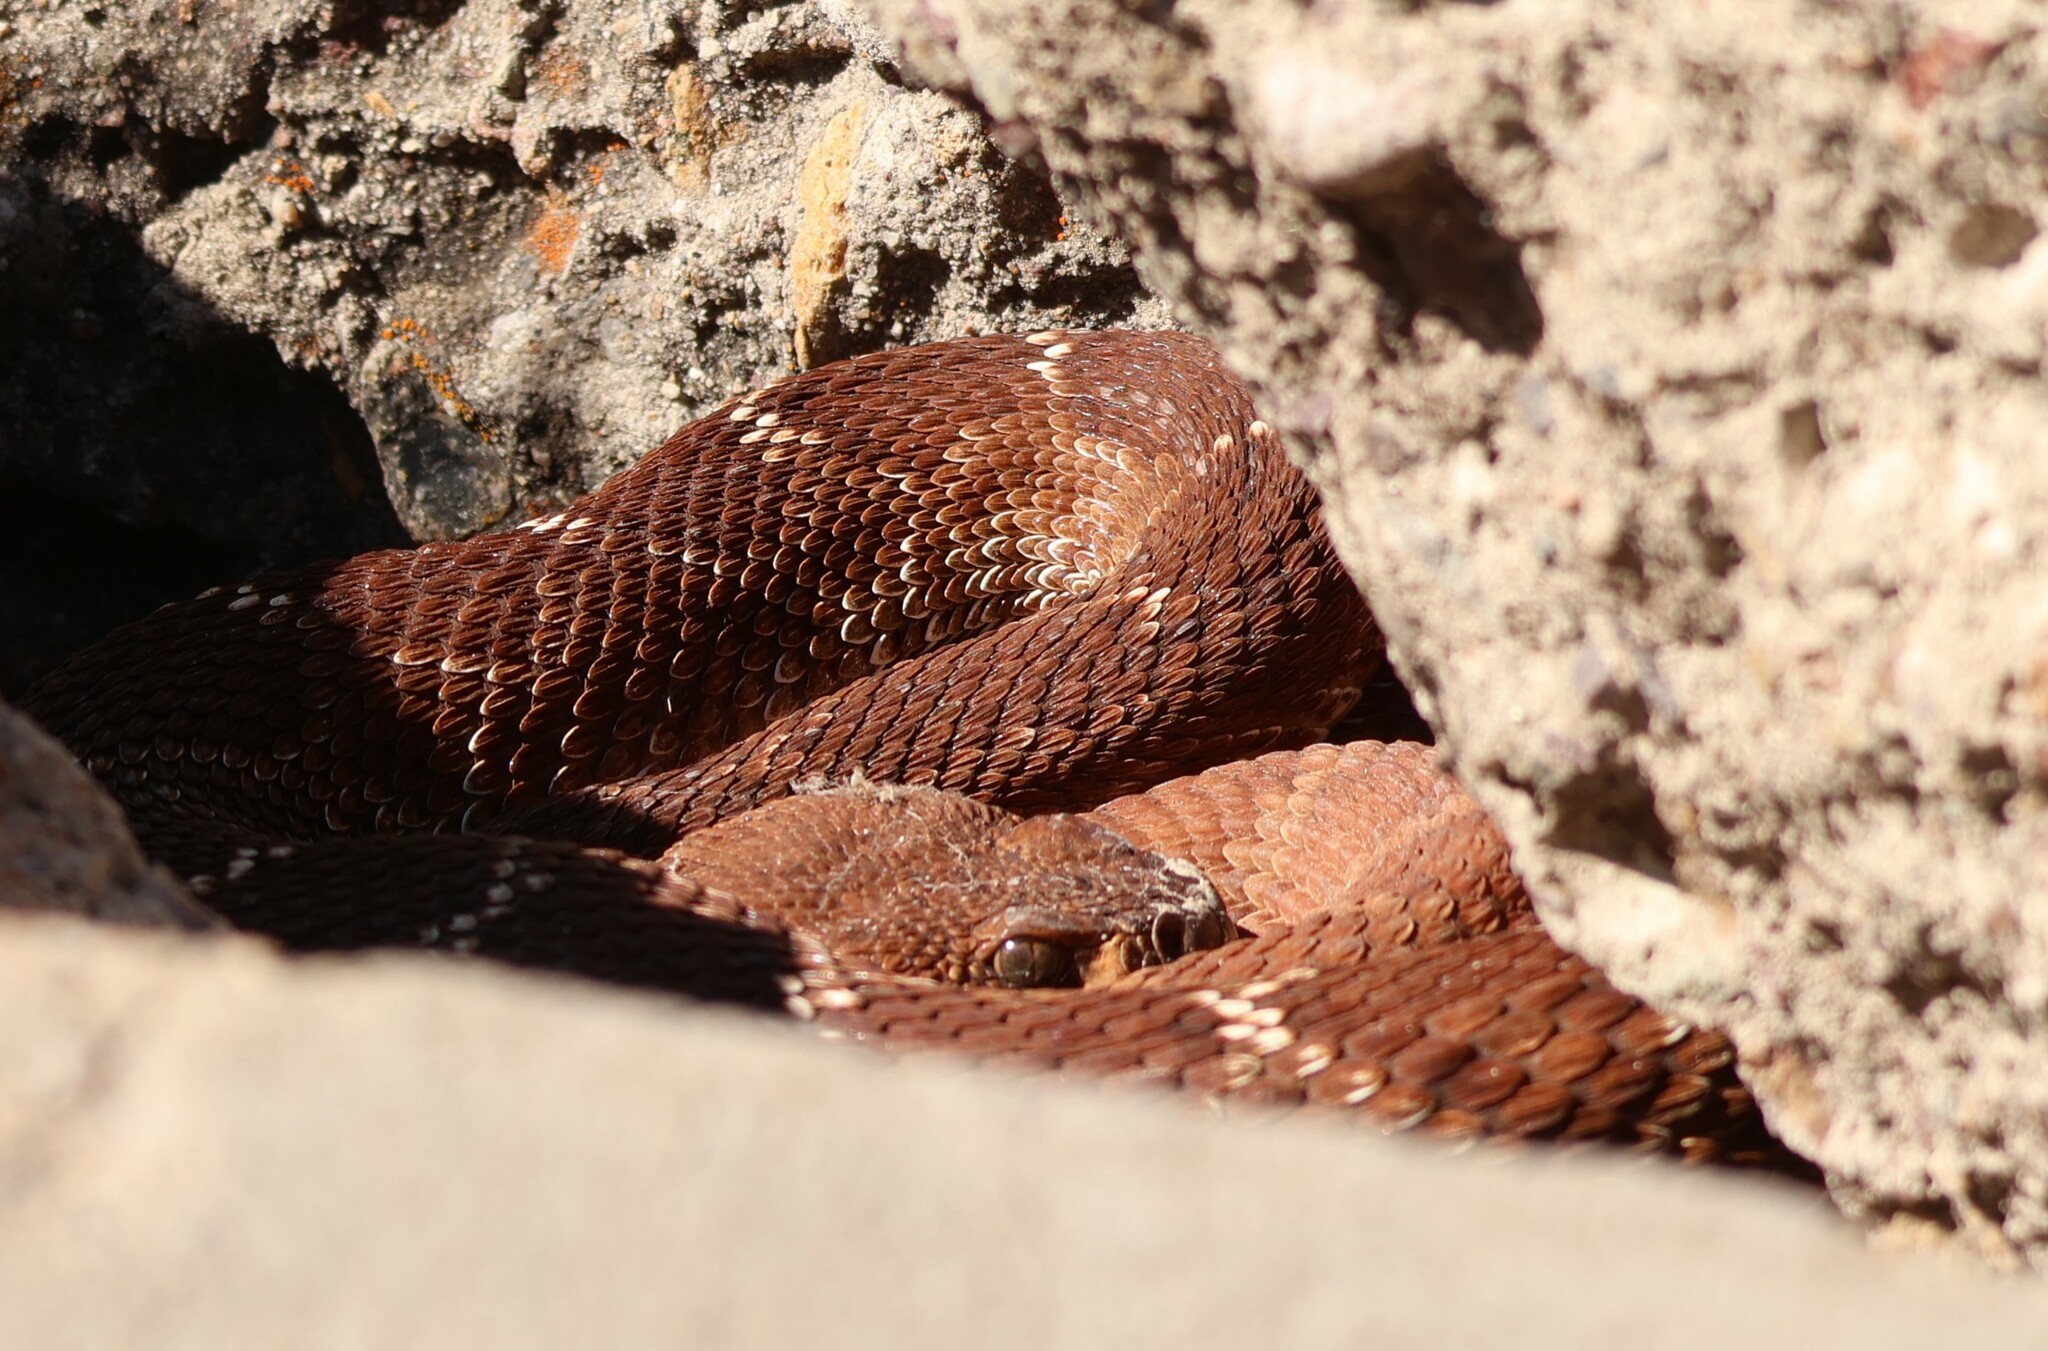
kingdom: Animalia
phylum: Chordata
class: Squamata
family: Viperidae
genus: Crotalus
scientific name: Crotalus ruber
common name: Red diamond rattlesnake
